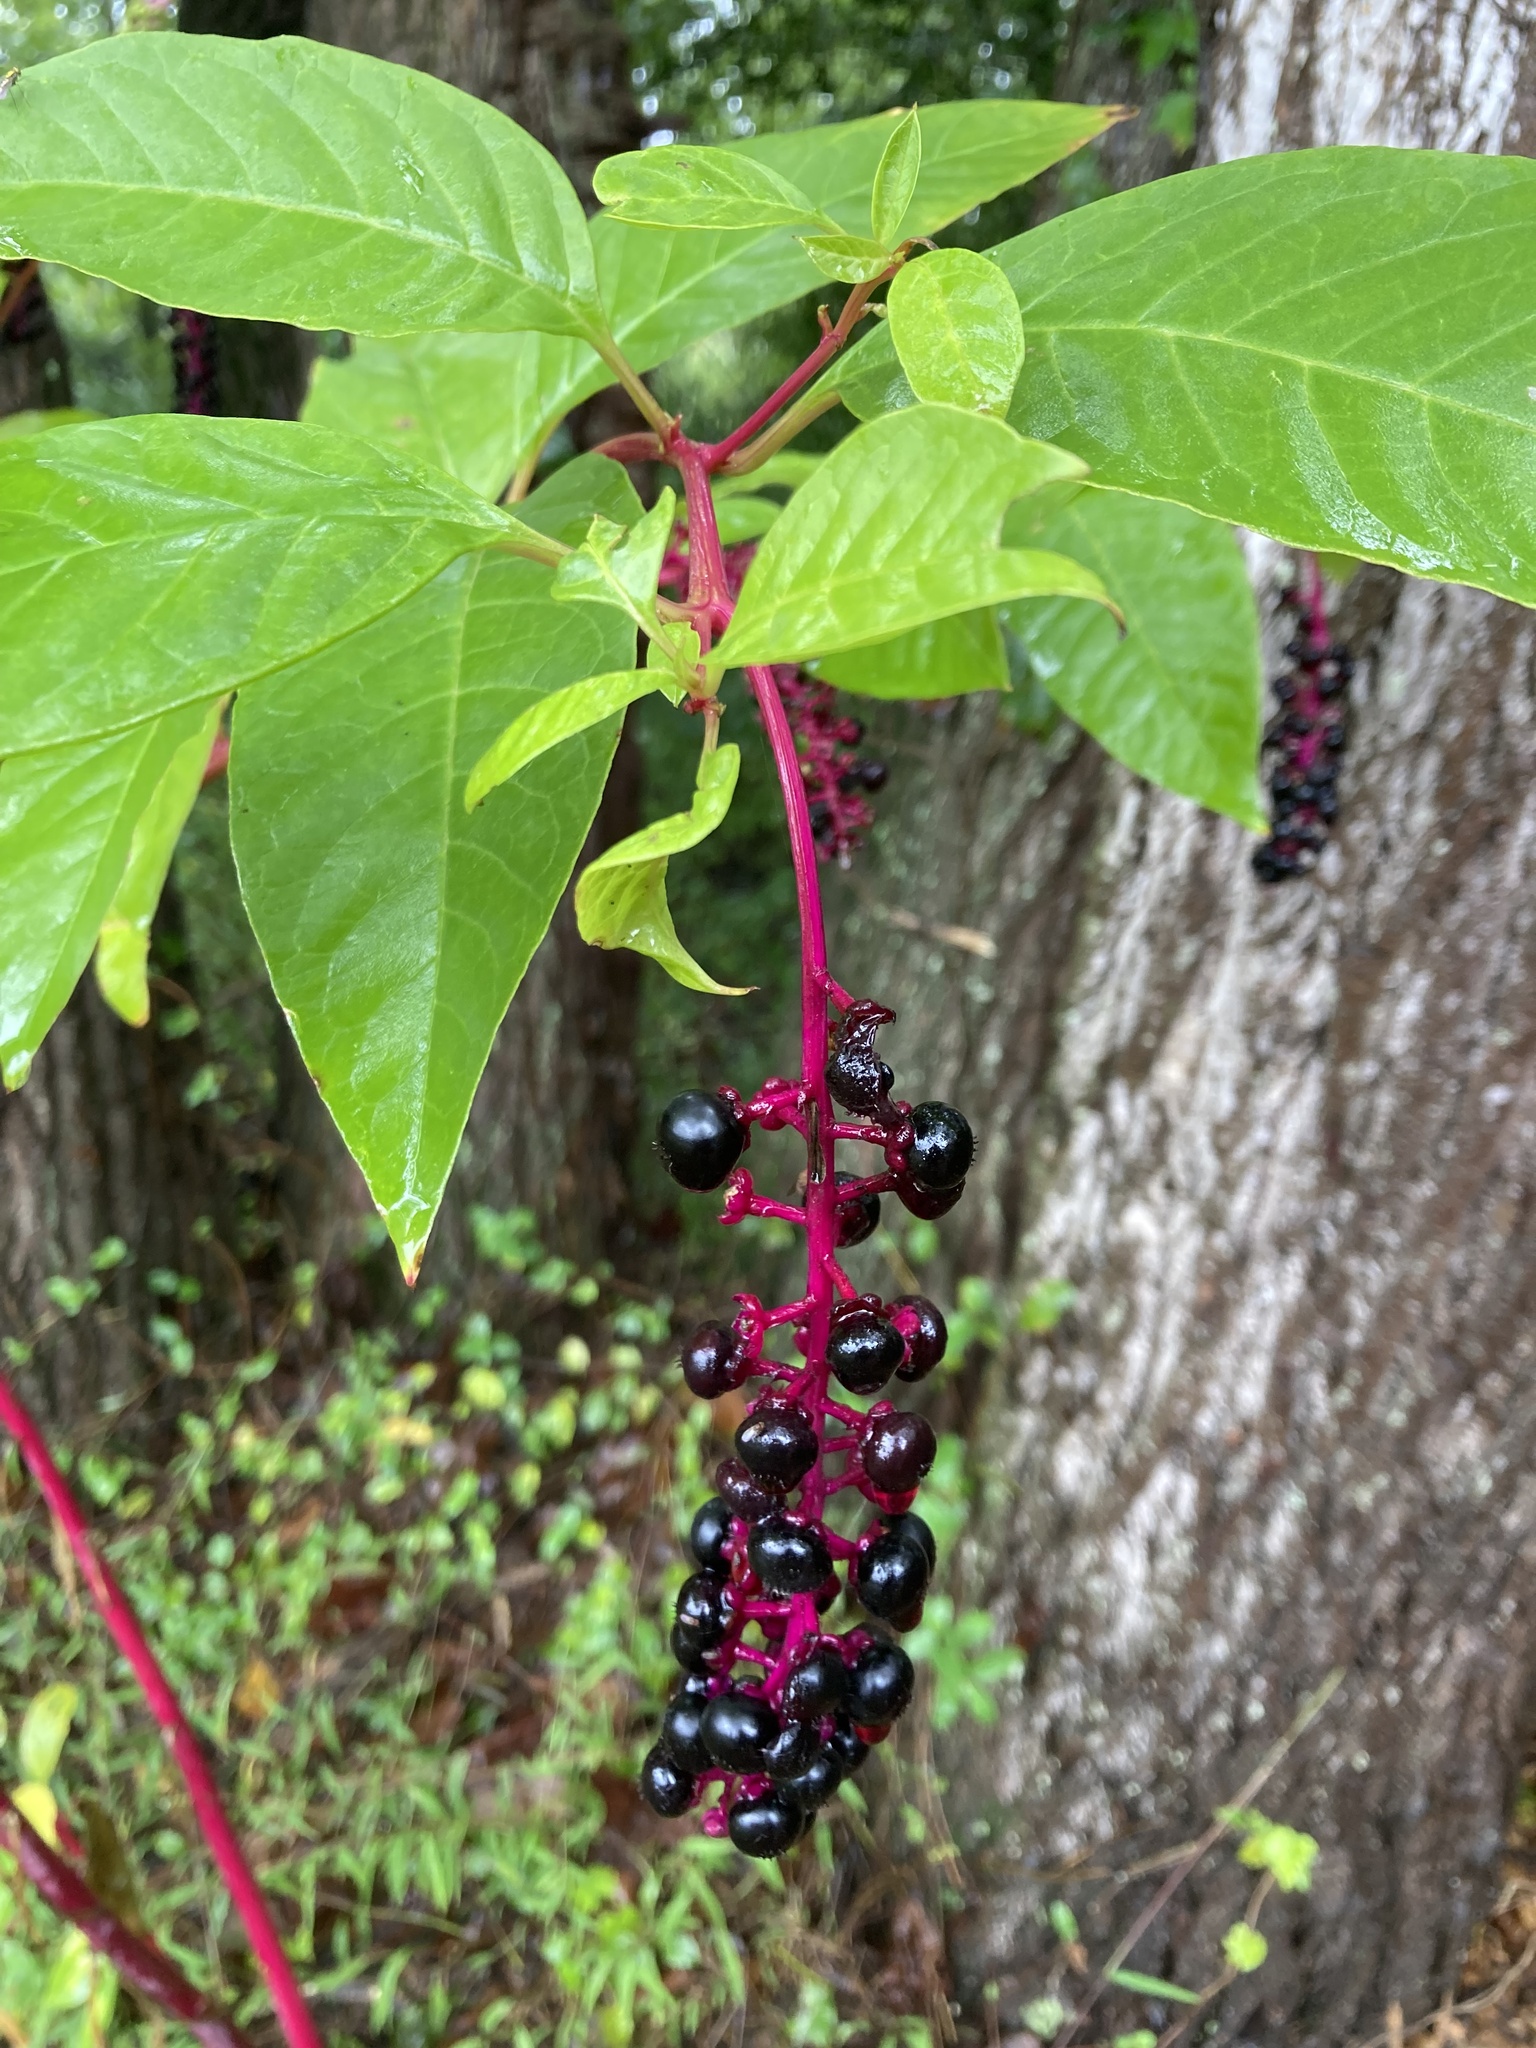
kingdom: Plantae
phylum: Tracheophyta
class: Magnoliopsida
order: Caryophyllales
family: Phytolaccaceae
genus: Phytolacca
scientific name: Phytolacca americana
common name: American pokeweed
